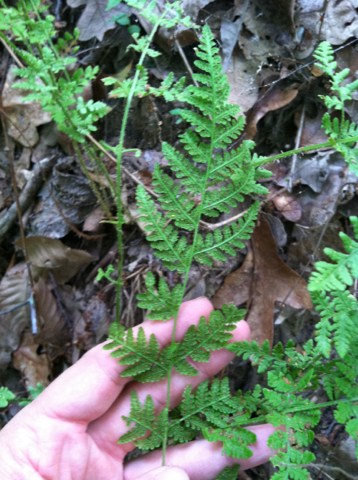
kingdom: Plantae
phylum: Tracheophyta
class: Polypodiopsida
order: Polypodiales
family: Woodsiaceae
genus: Physematium
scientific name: Physematium obtusum
